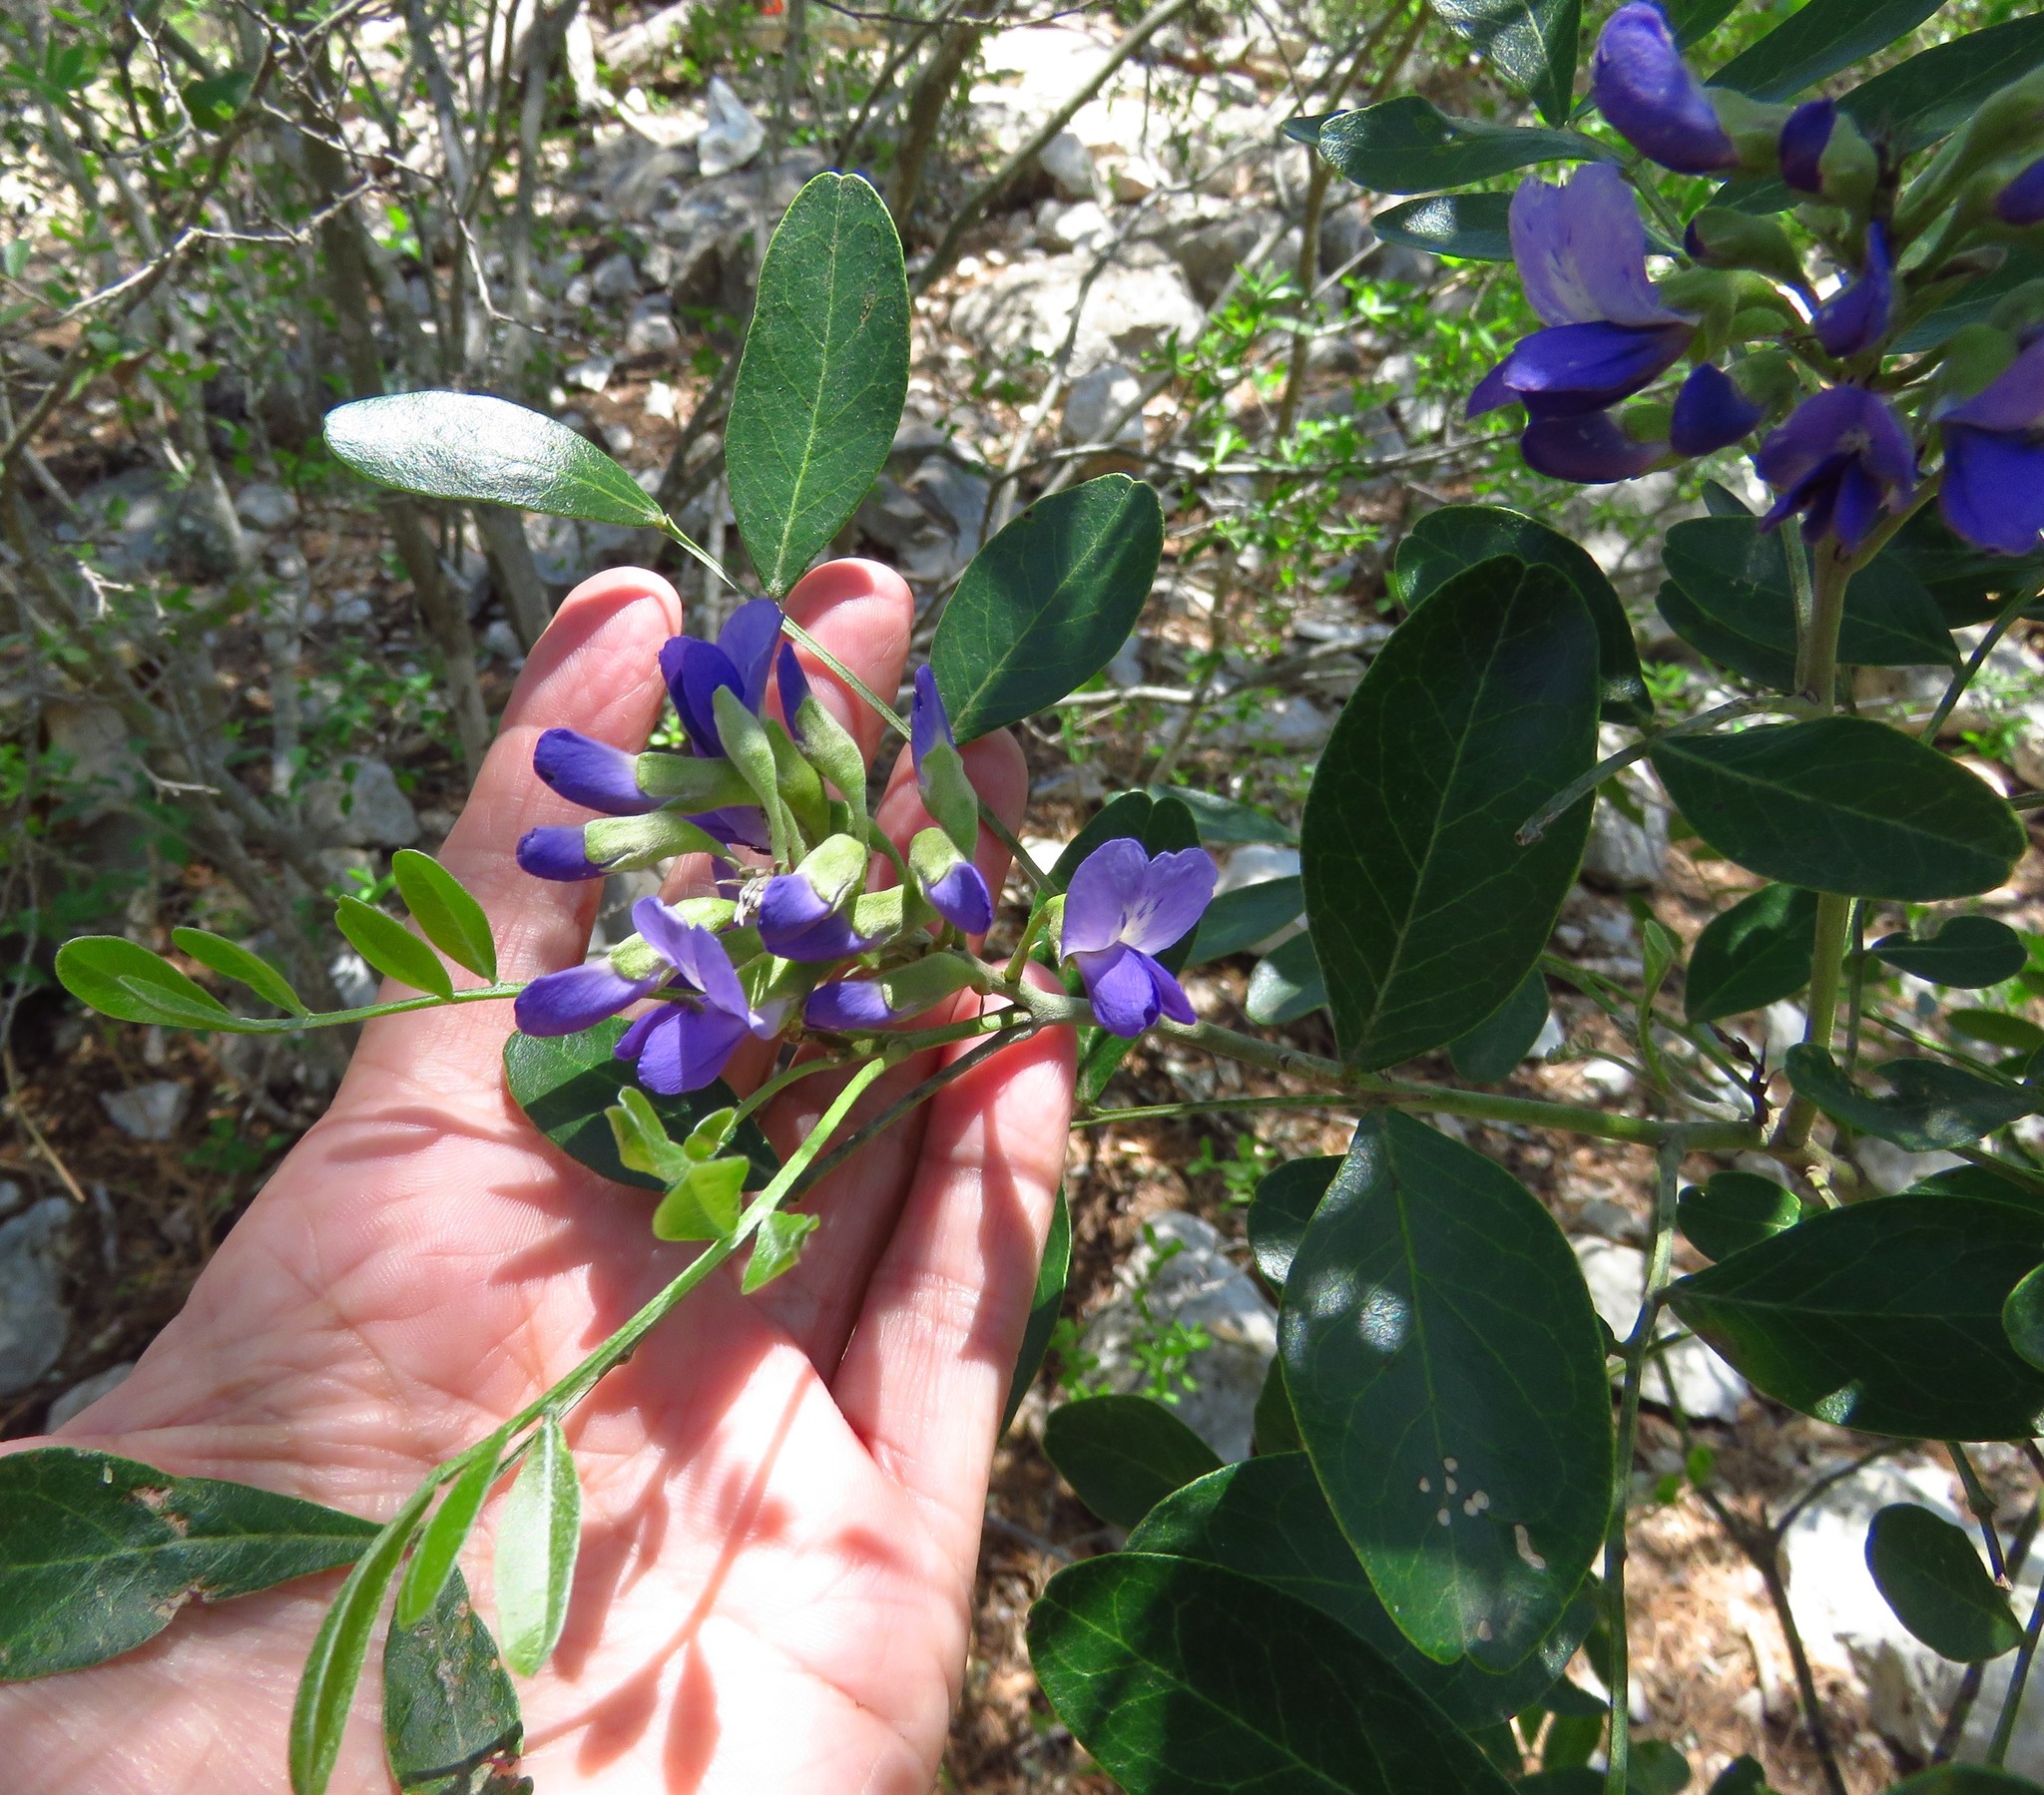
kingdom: Plantae
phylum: Tracheophyta
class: Magnoliopsida
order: Fabales
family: Fabaceae
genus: Dermatophyllum
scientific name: Dermatophyllum secundiflorum
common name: Texas-mountain-laurel
